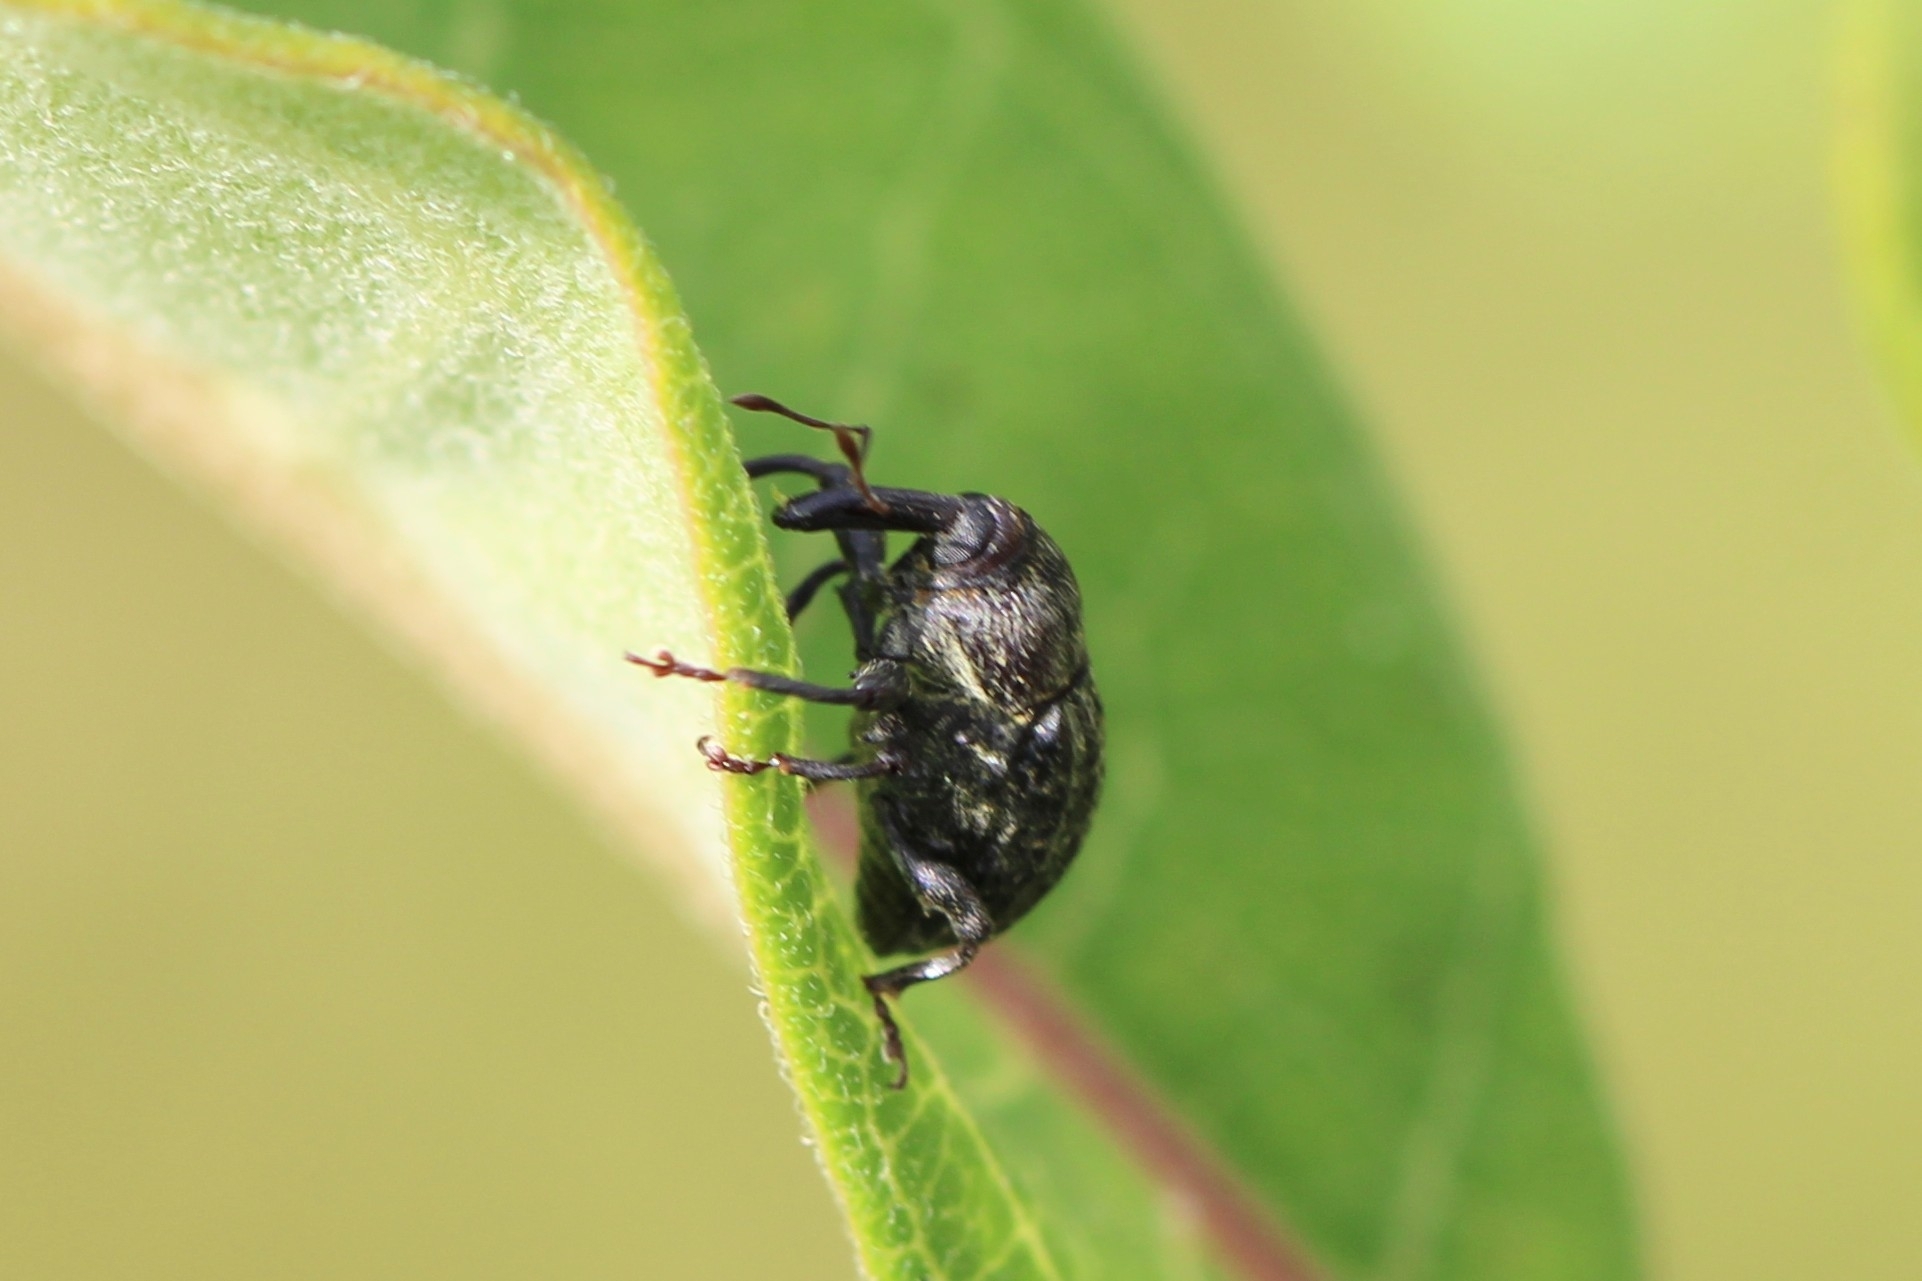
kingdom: Animalia
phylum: Arthropoda
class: Insecta
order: Coleoptera
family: Curculionidae
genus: Rhyssomatus
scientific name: Rhyssomatus lineaticollis
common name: Milkweed stem weevil
